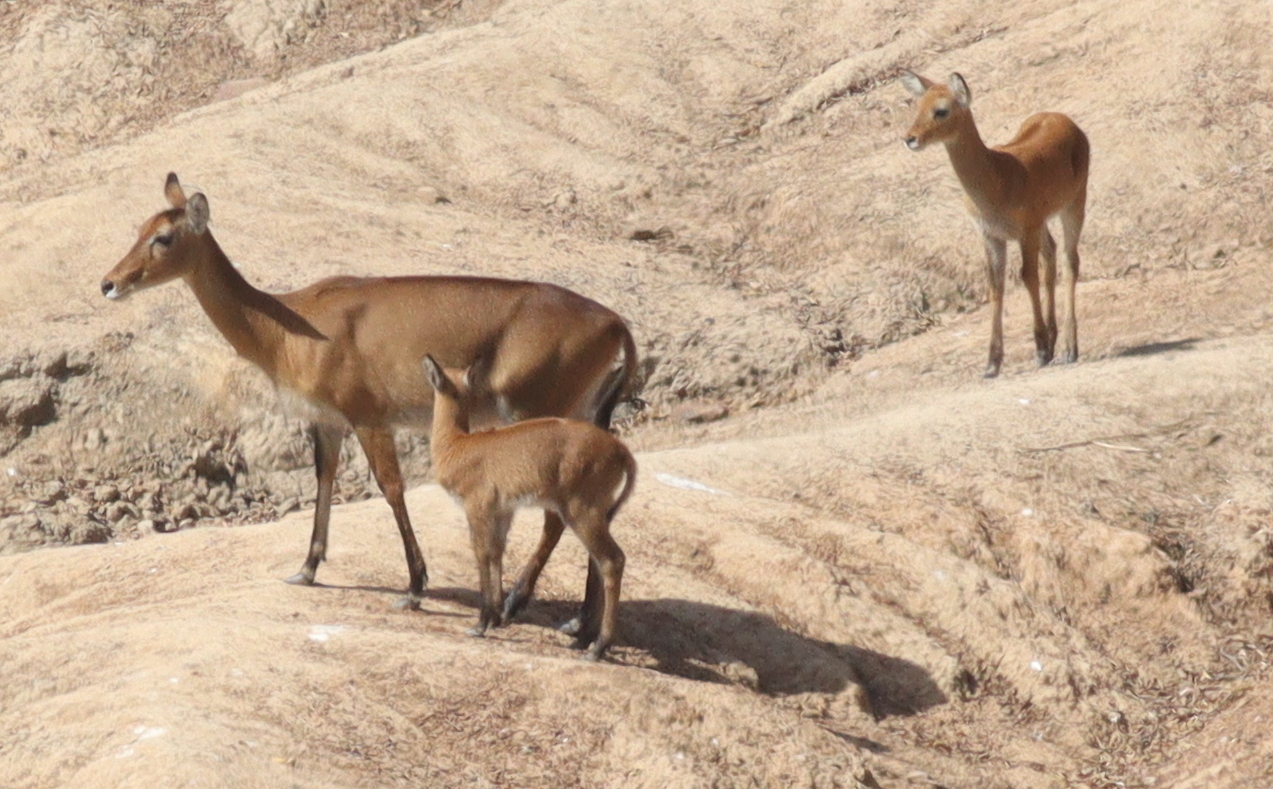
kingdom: Animalia
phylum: Chordata
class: Mammalia
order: Artiodactyla
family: Bovidae
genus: Kobus
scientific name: Kobus kob
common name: Kob
